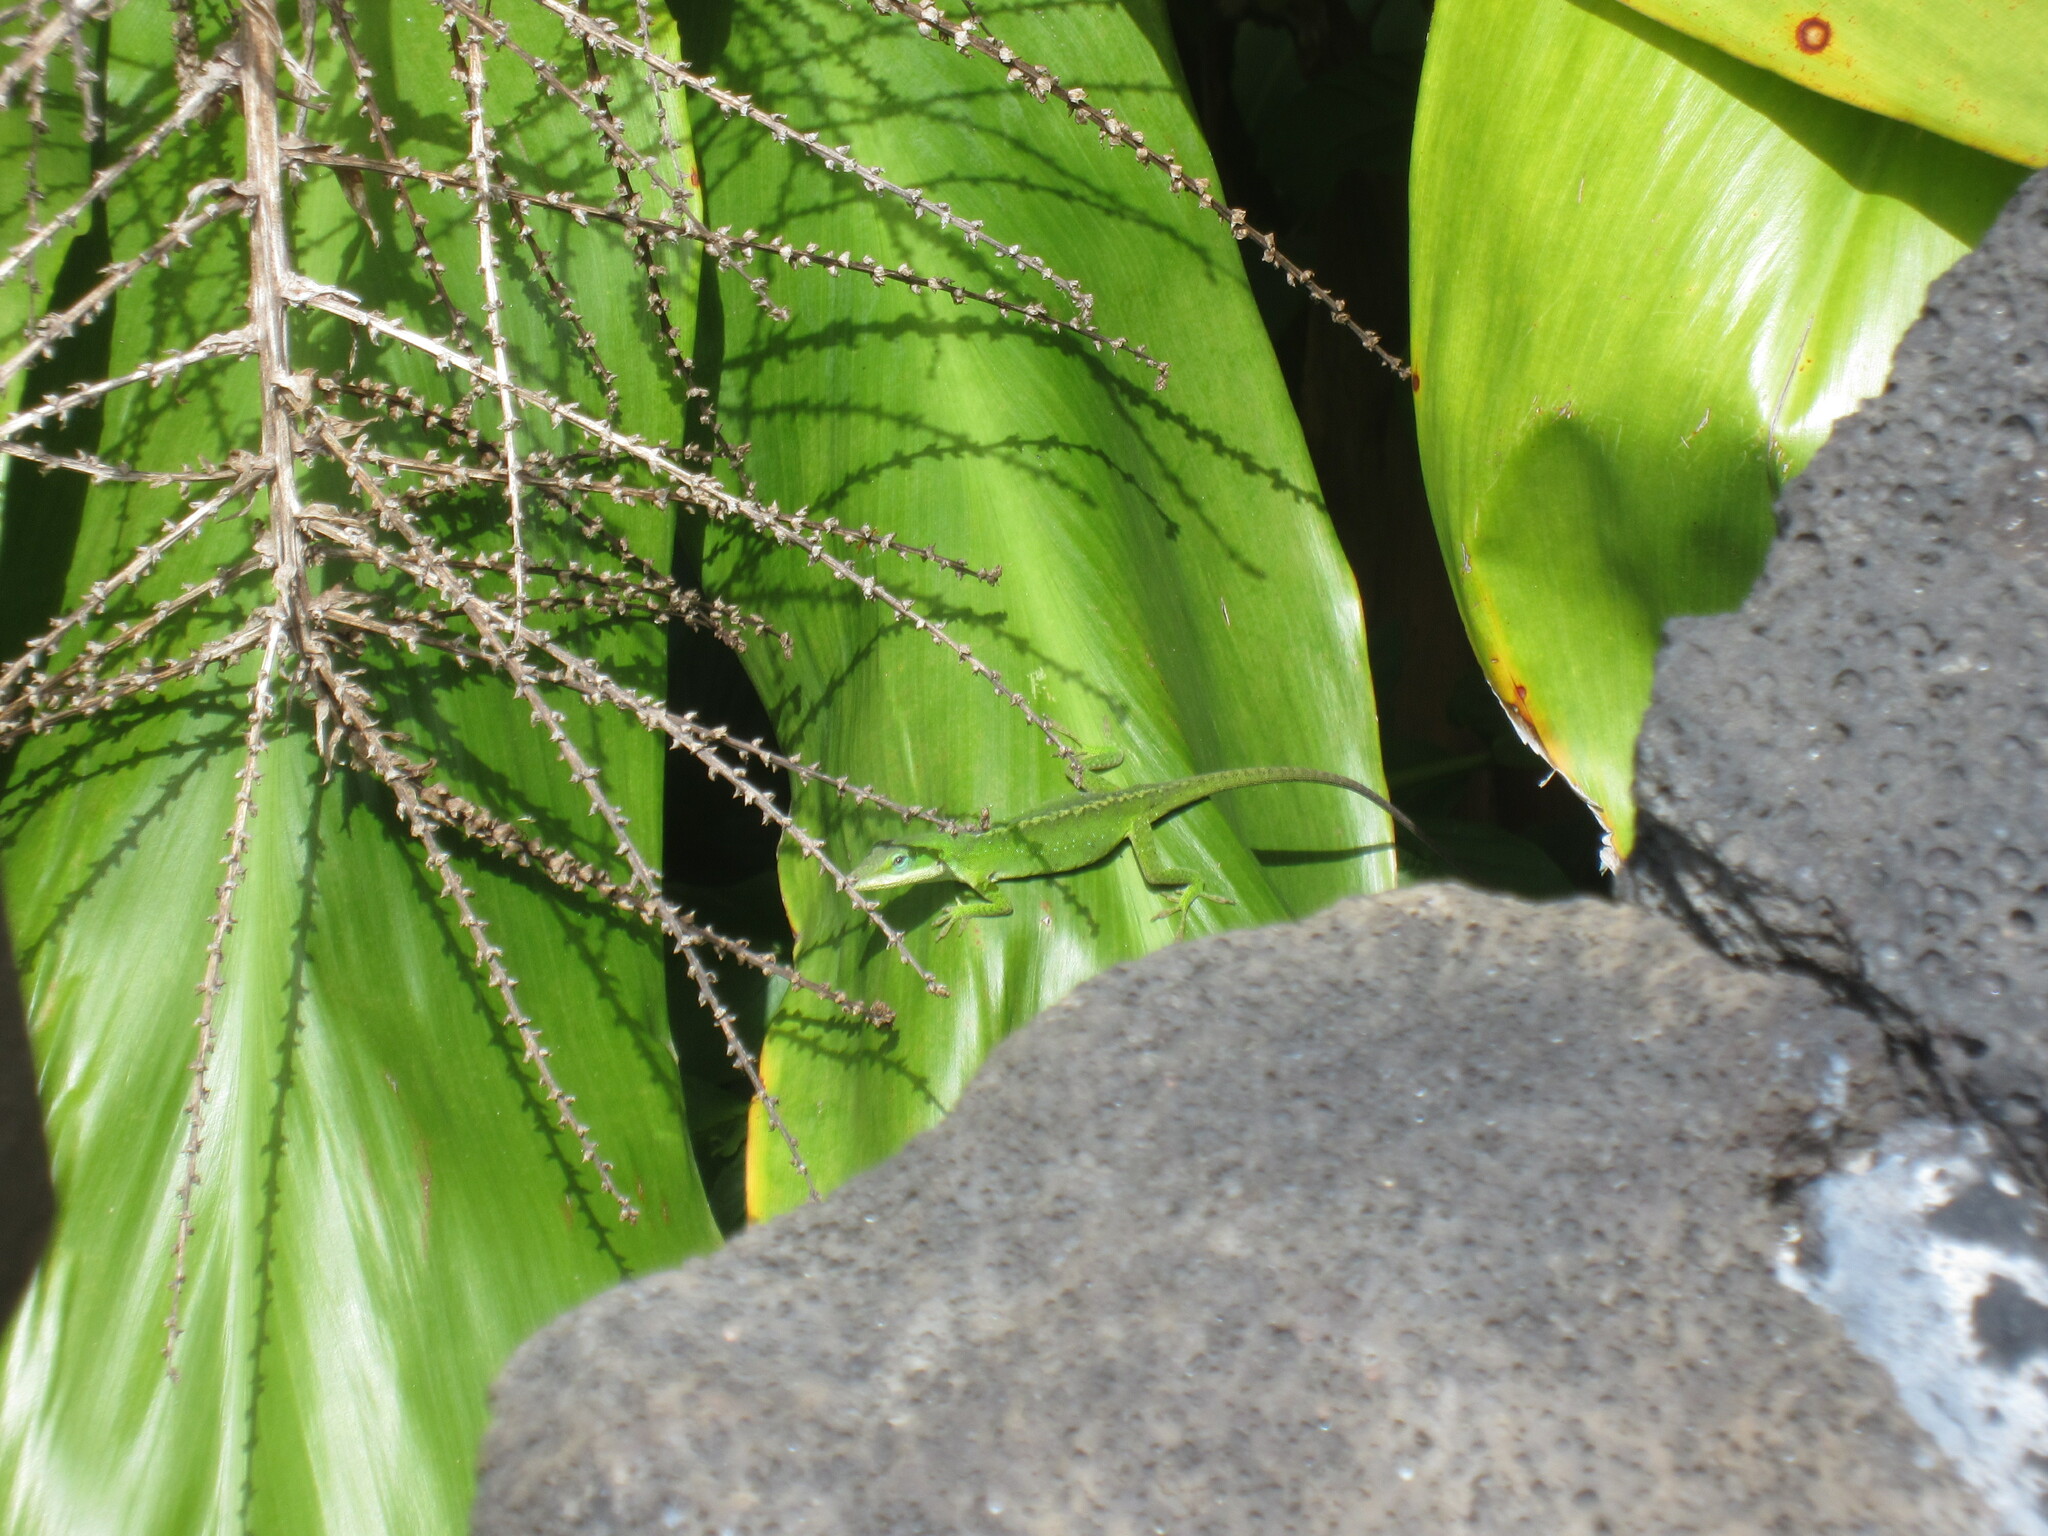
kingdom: Animalia
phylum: Chordata
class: Squamata
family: Dactyloidae
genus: Anolis
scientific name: Anolis carolinensis
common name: Green anole
